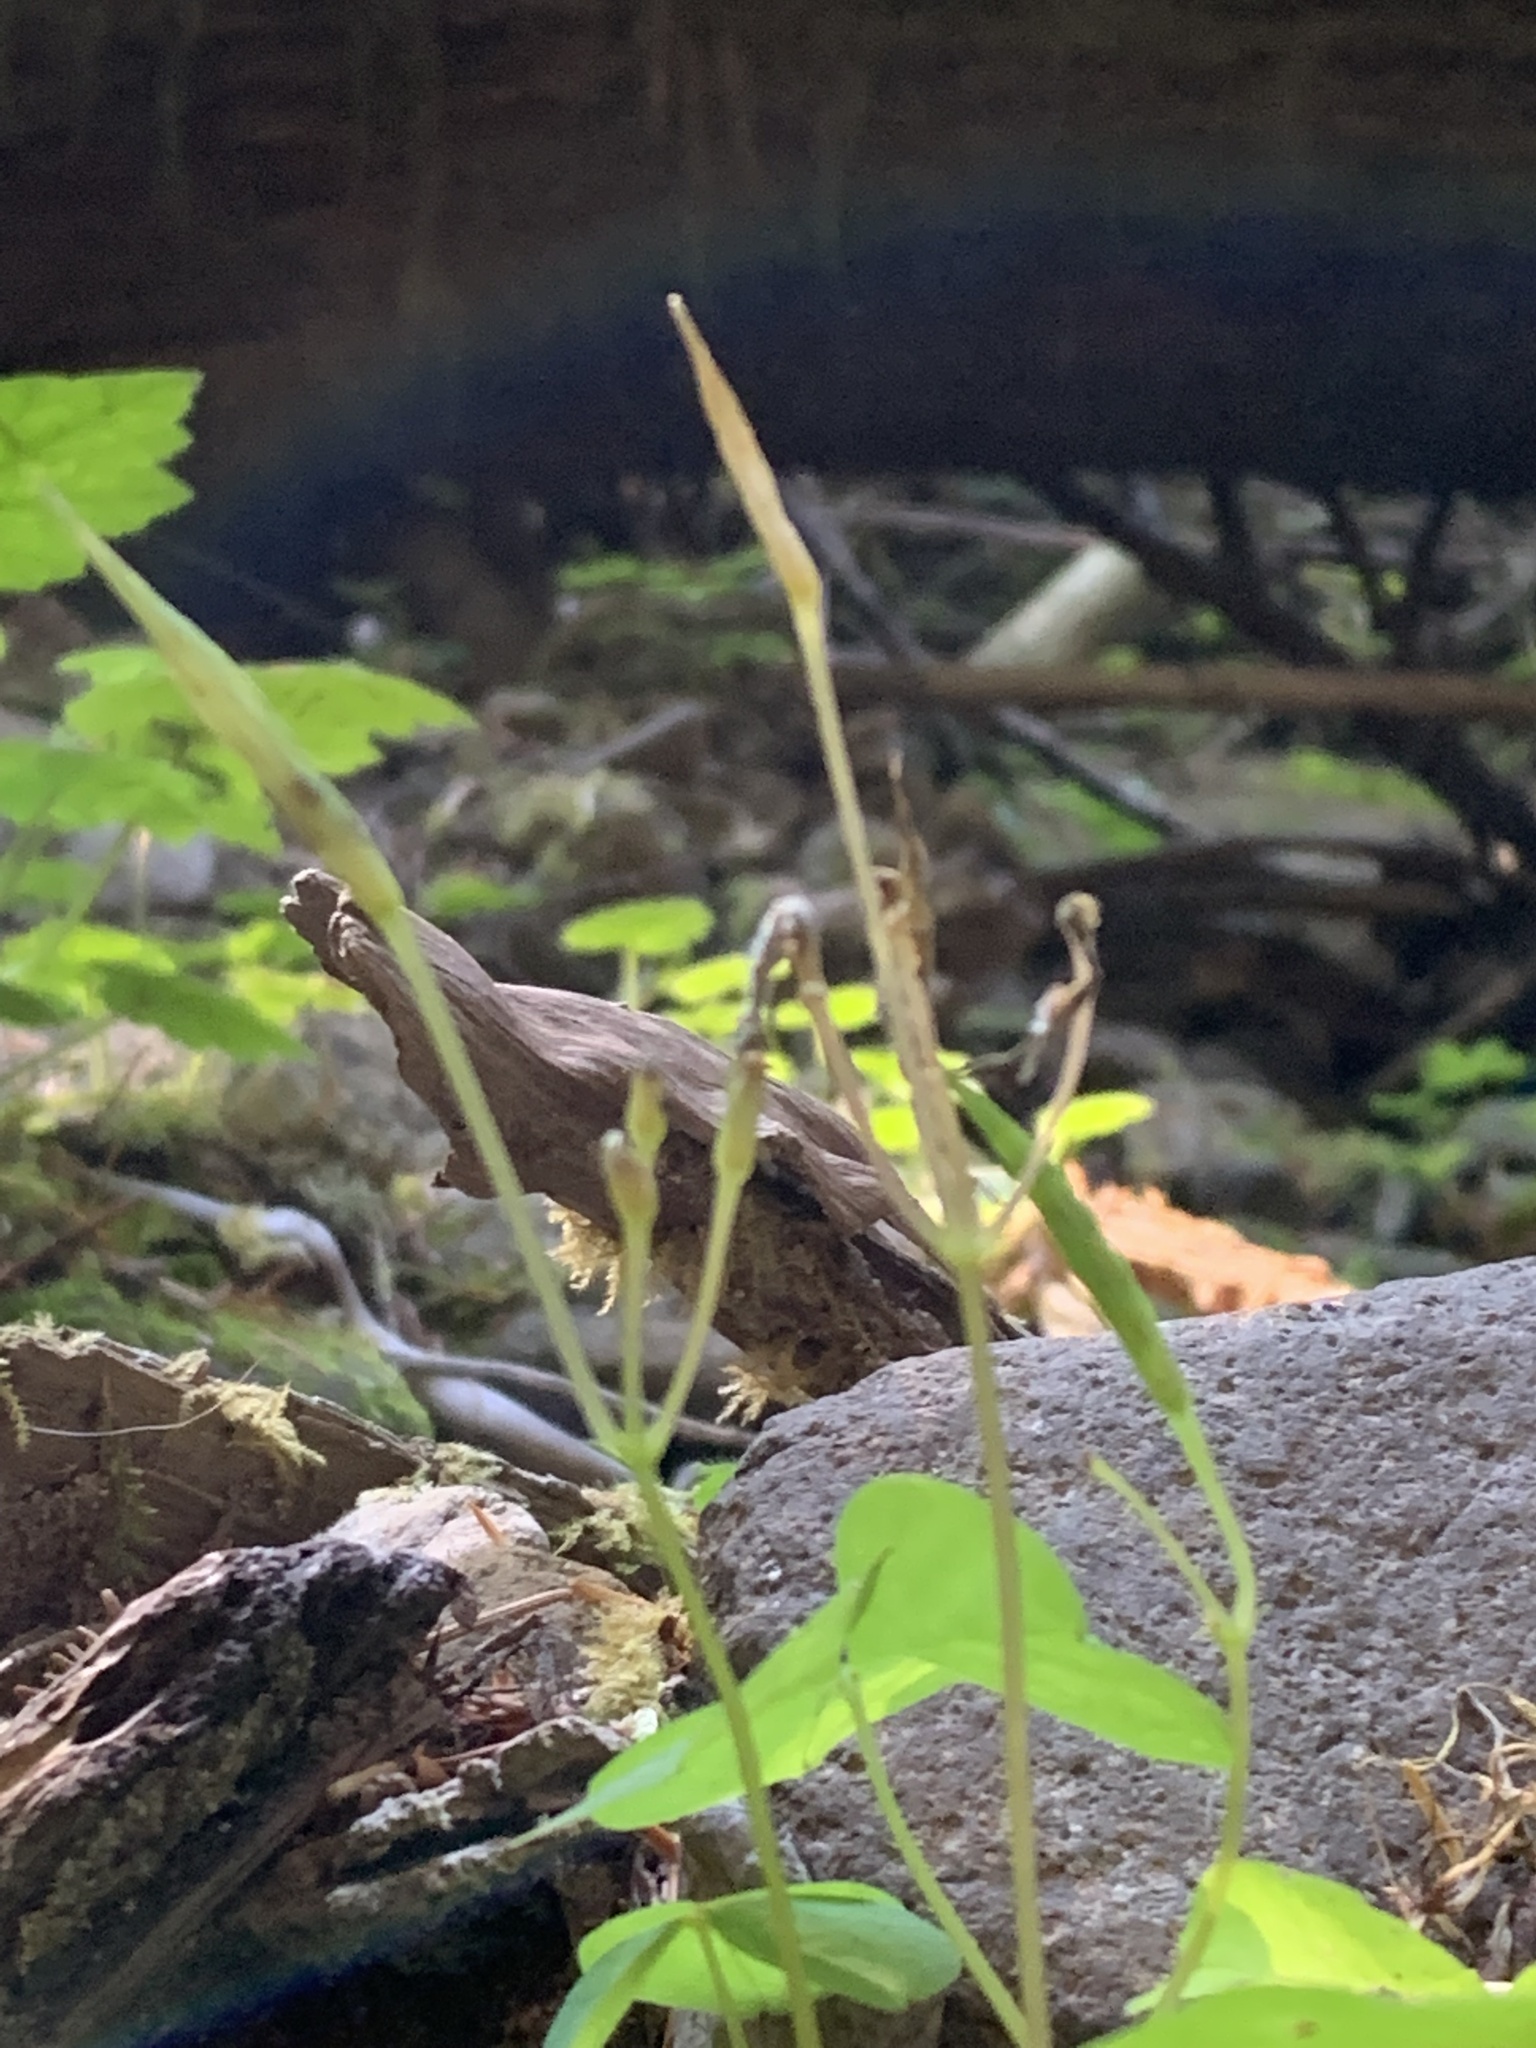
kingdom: Plantae
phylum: Tracheophyta
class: Magnoliopsida
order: Oxalidales
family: Oxalidaceae
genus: Oxalis
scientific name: Oxalis trilliifolia
